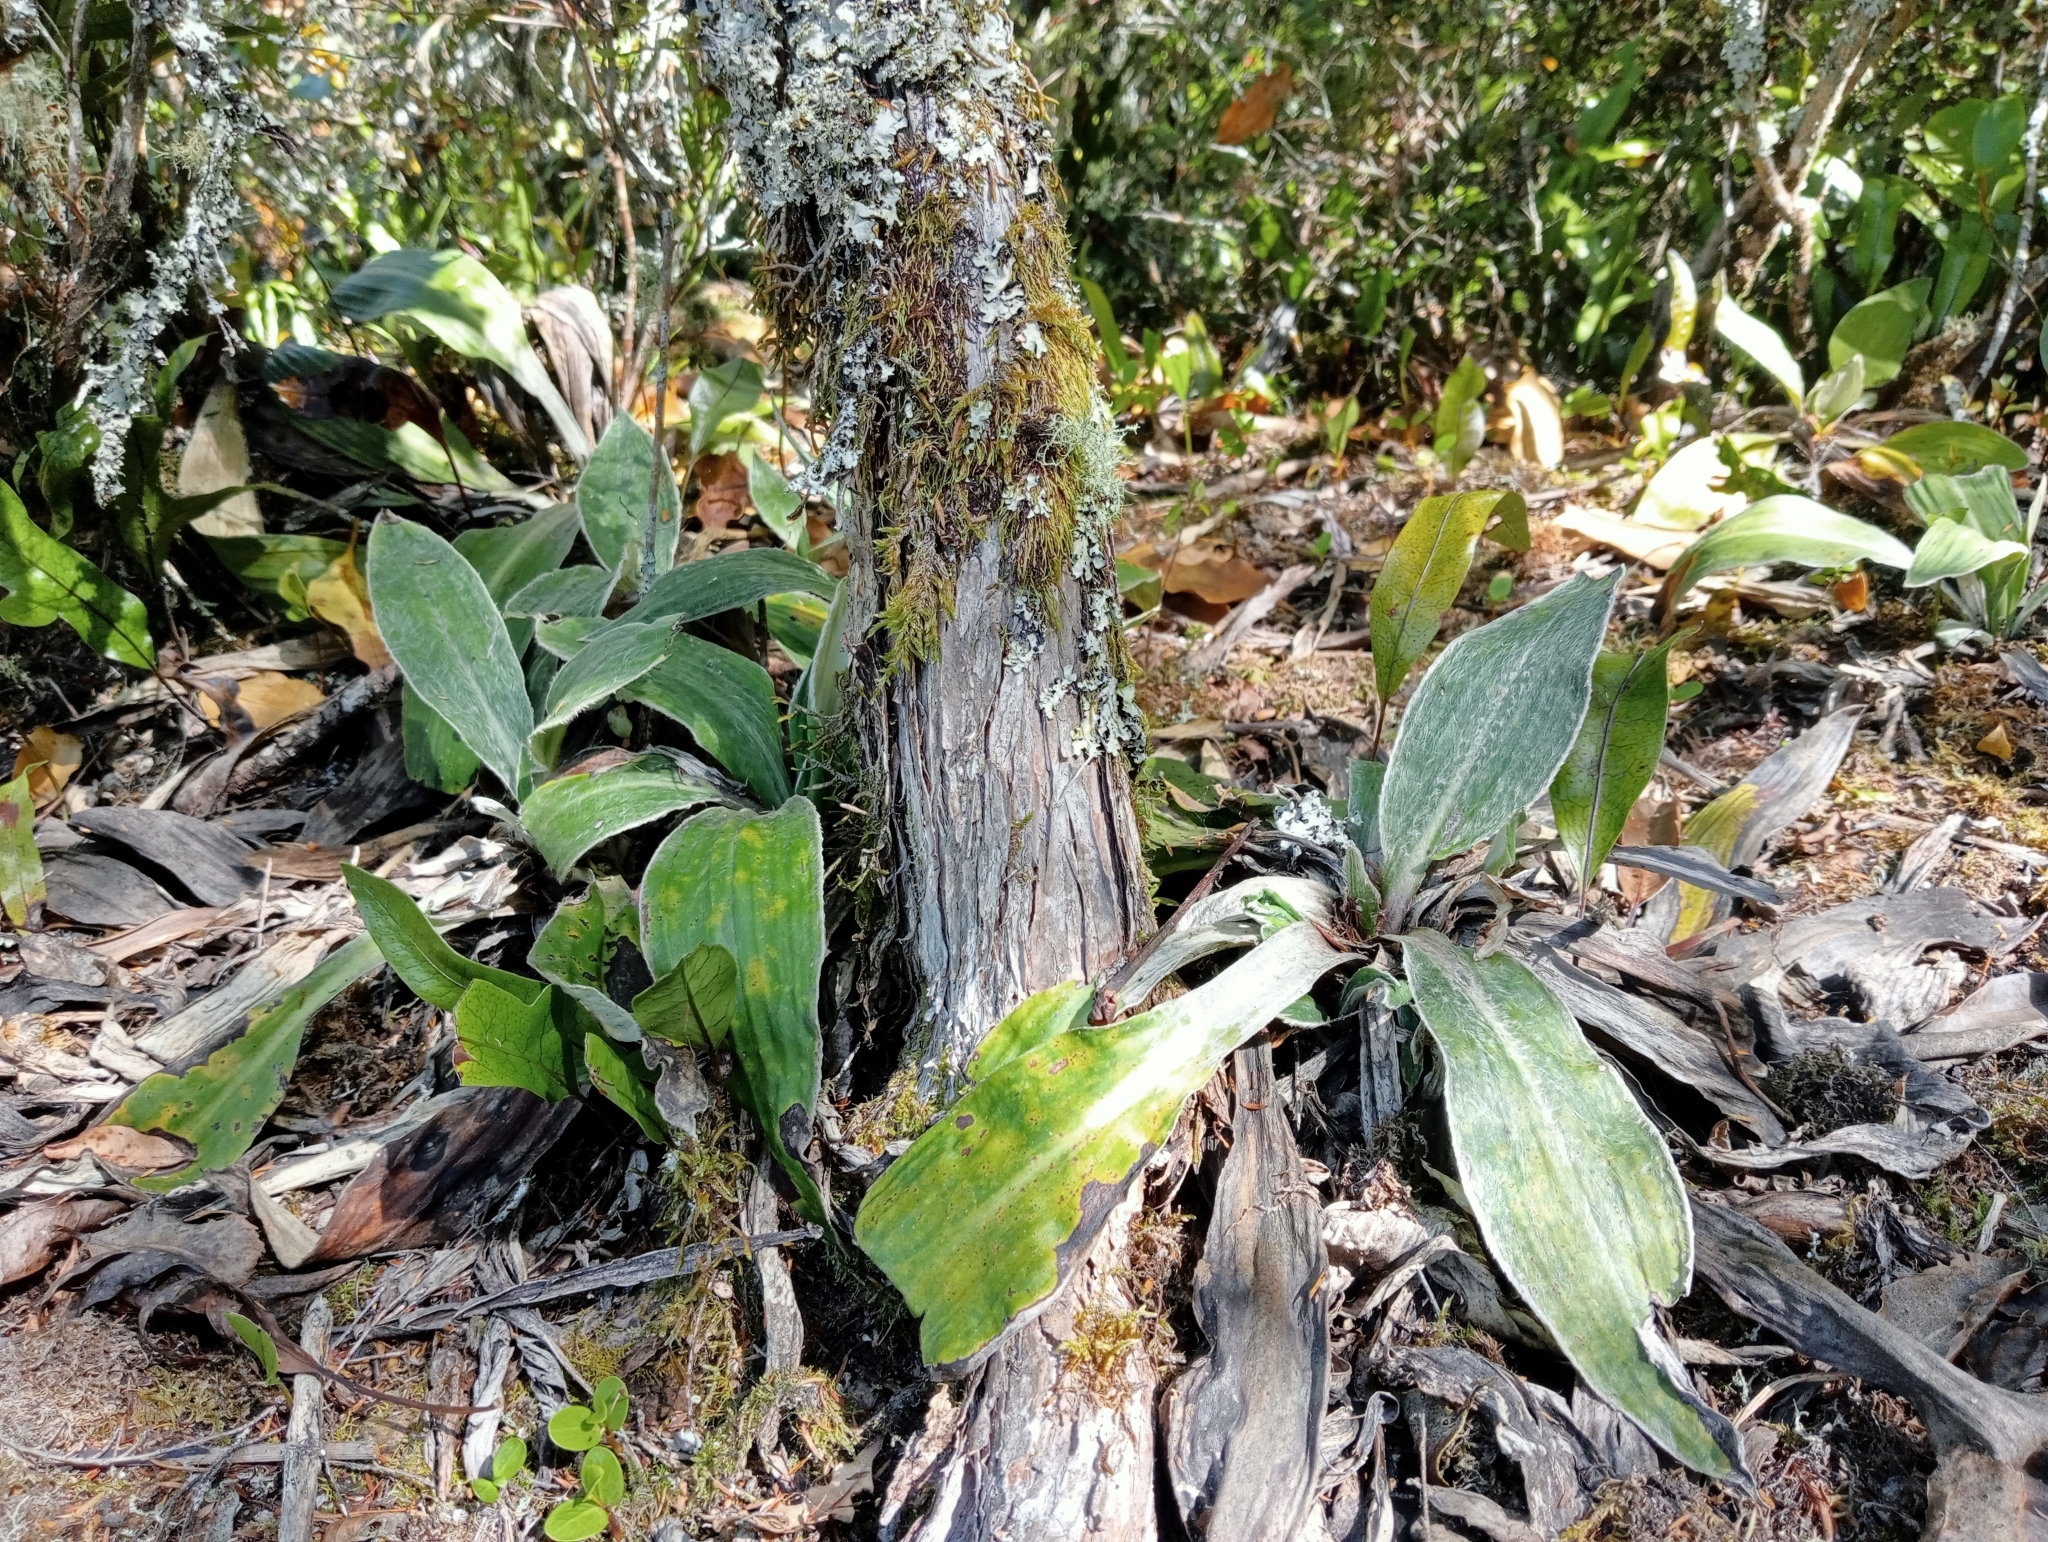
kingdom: Plantae
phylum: Tracheophyta
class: Magnoliopsida
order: Asterales
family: Asteraceae
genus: Celmisia
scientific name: Celmisia hookeri
